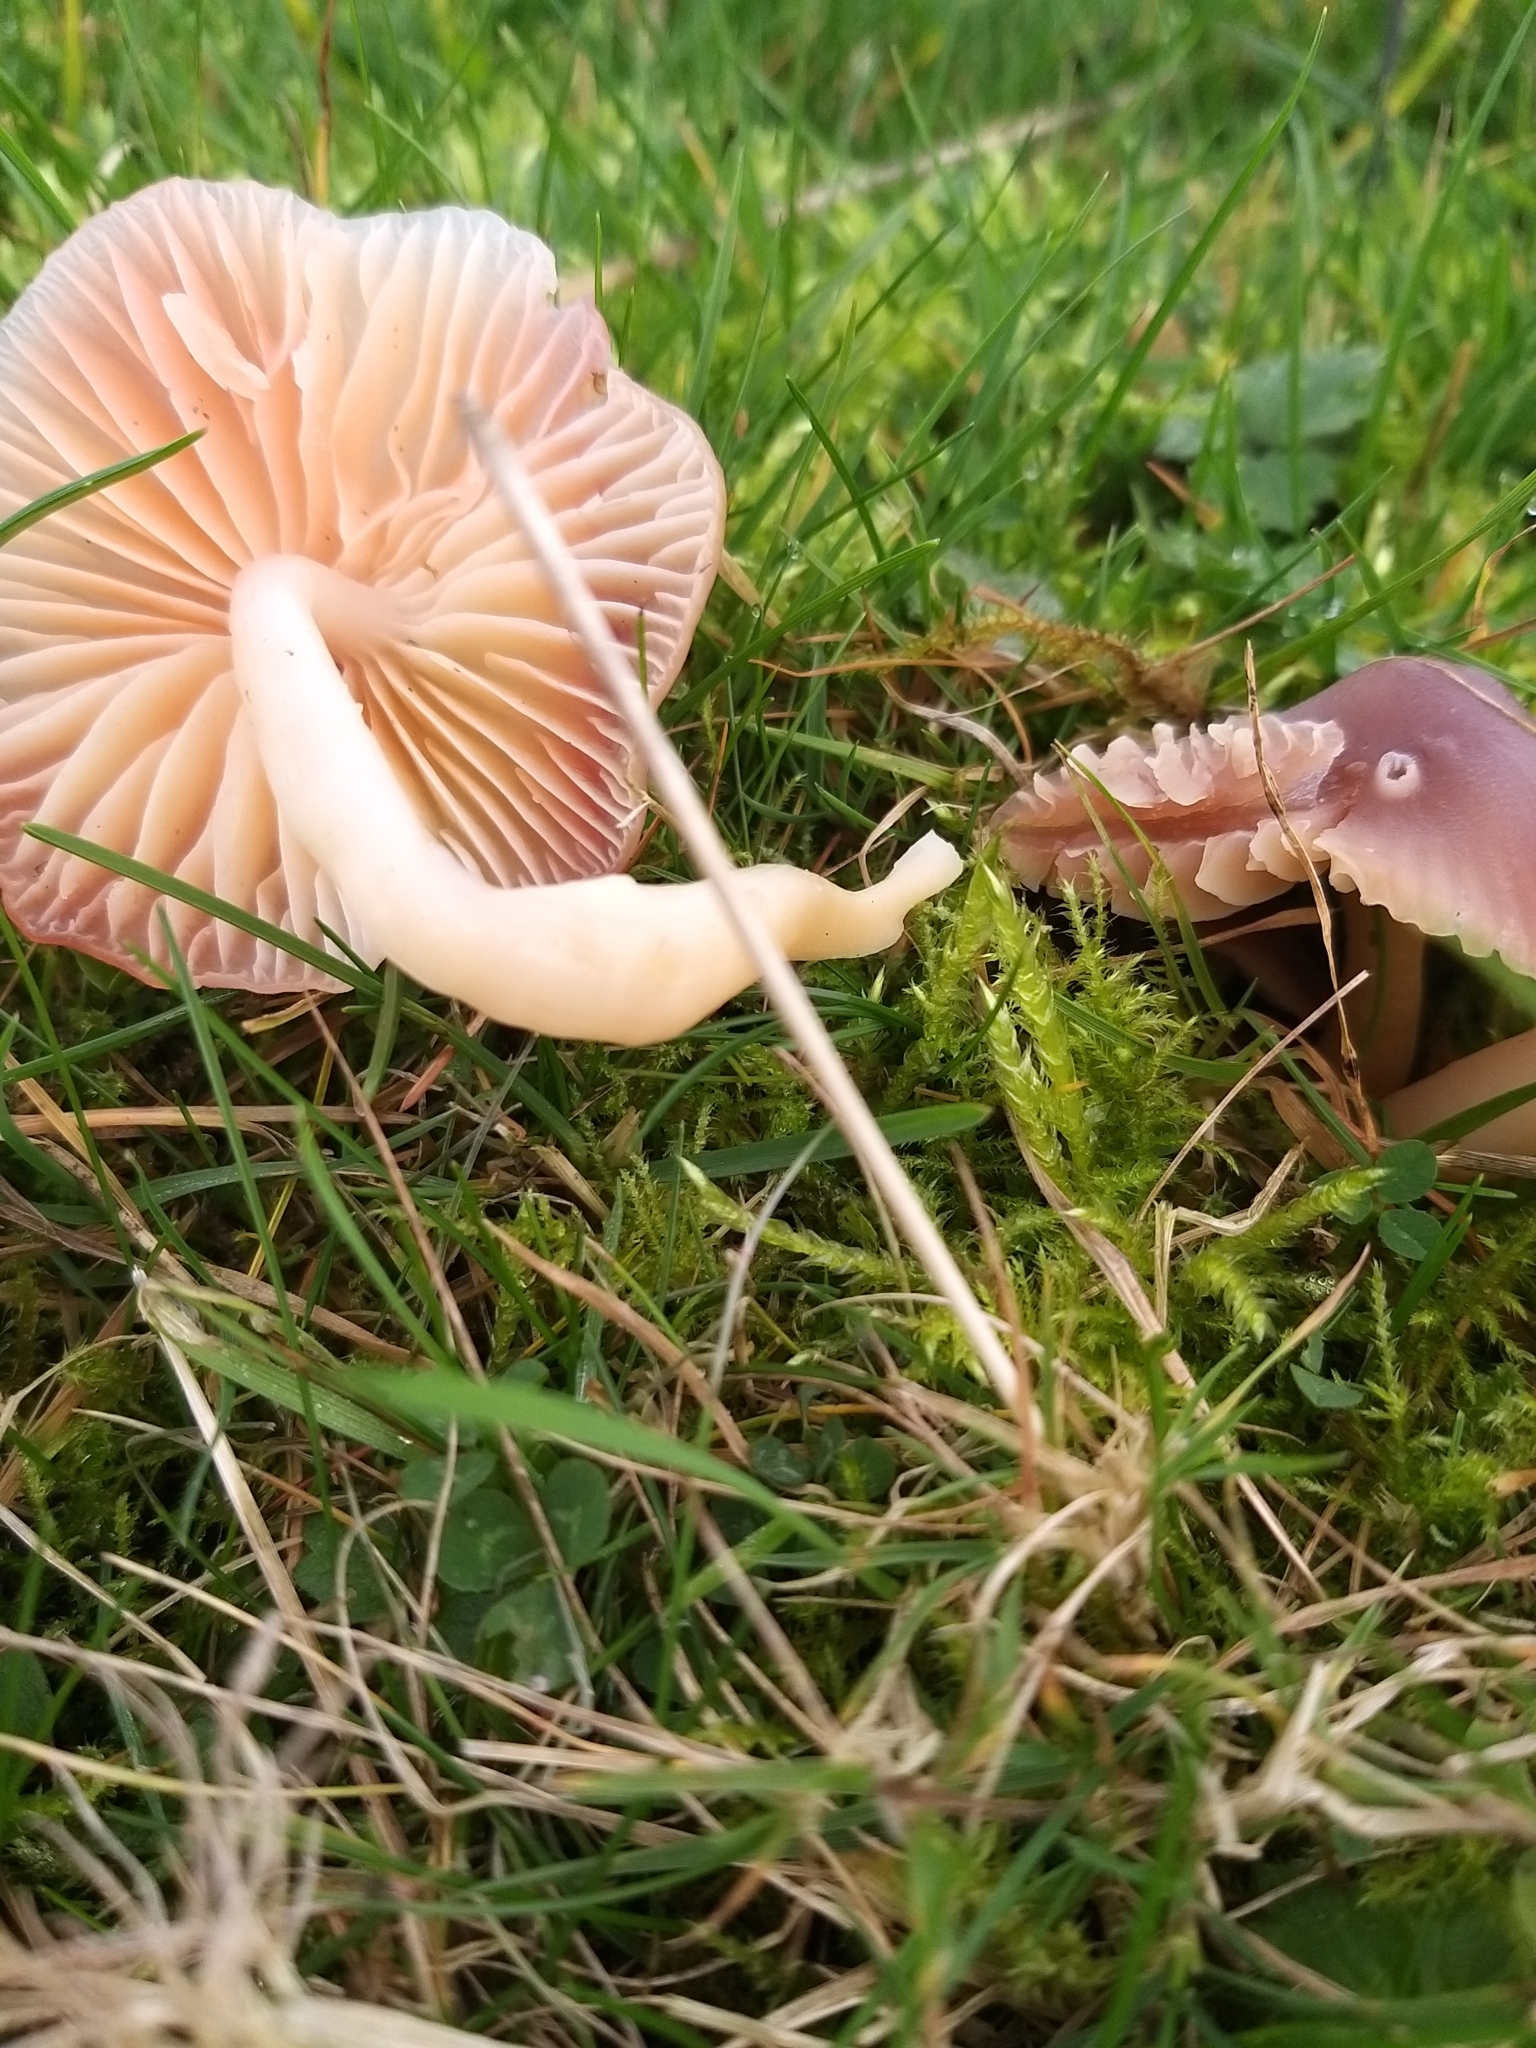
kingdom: Fungi
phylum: Basidiomycota
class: Agaricomycetes
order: Agaricales
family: Hygrophoraceae
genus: Gliophorus
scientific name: Gliophorus reginae
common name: Jubilee waxcap
